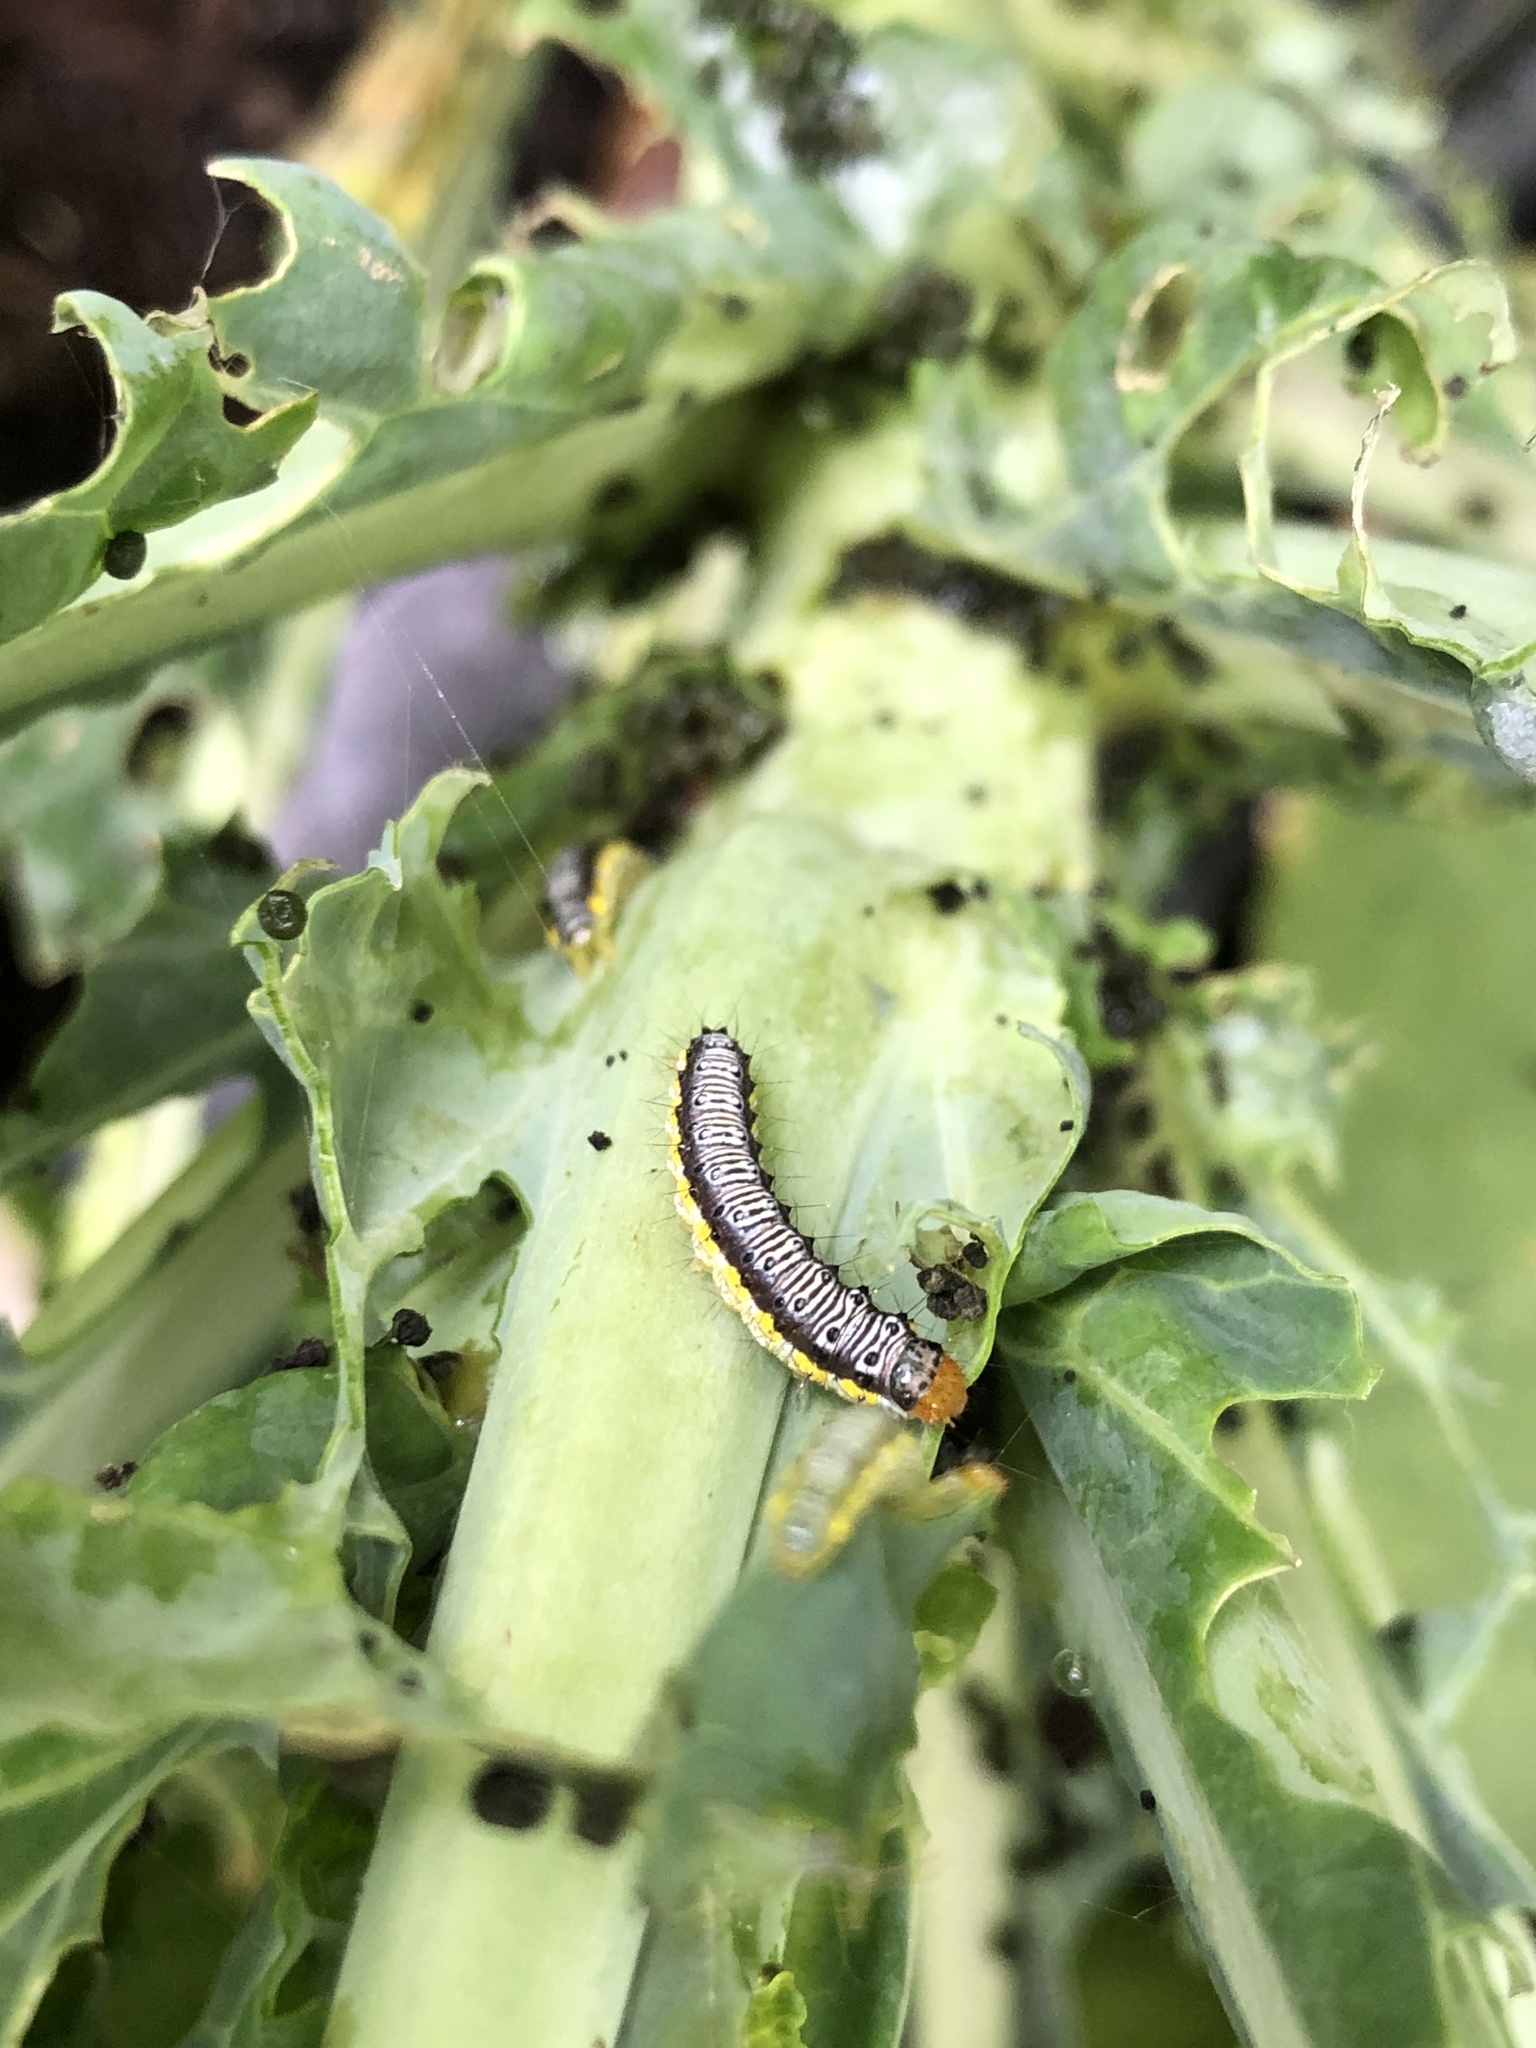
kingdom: Animalia
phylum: Arthropoda
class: Insecta
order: Lepidoptera
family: Crambidae
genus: Evergestis
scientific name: Evergestis rimosalis
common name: Cross-striped cabbageworm moth
